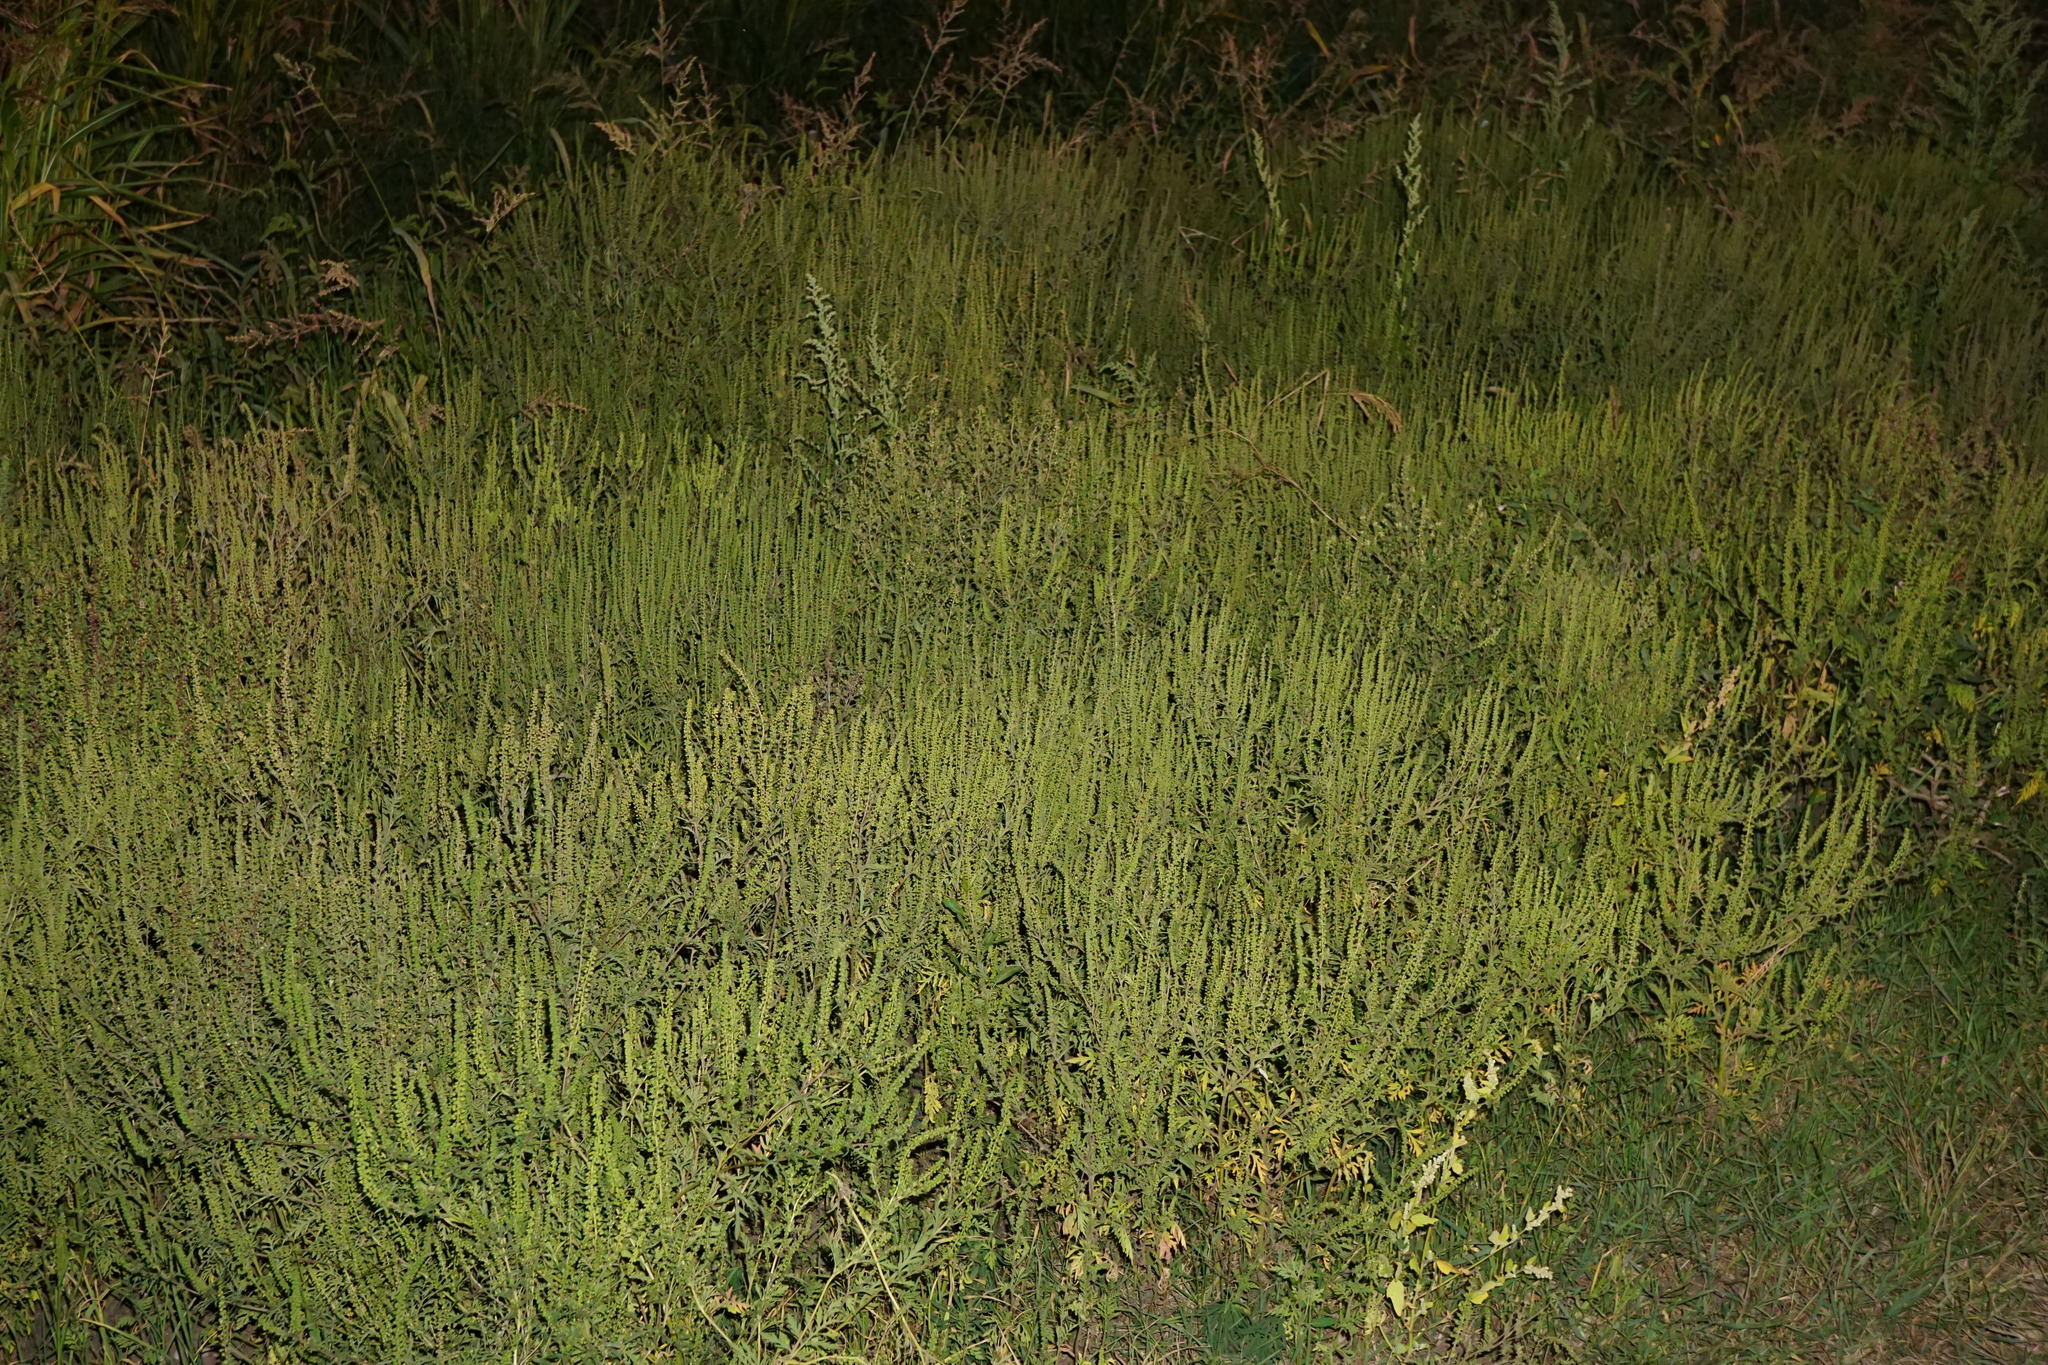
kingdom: Plantae
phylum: Tracheophyta
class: Magnoliopsida
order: Asterales
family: Asteraceae
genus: Ambrosia
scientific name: Ambrosia artemisiifolia
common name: Annual ragweed
